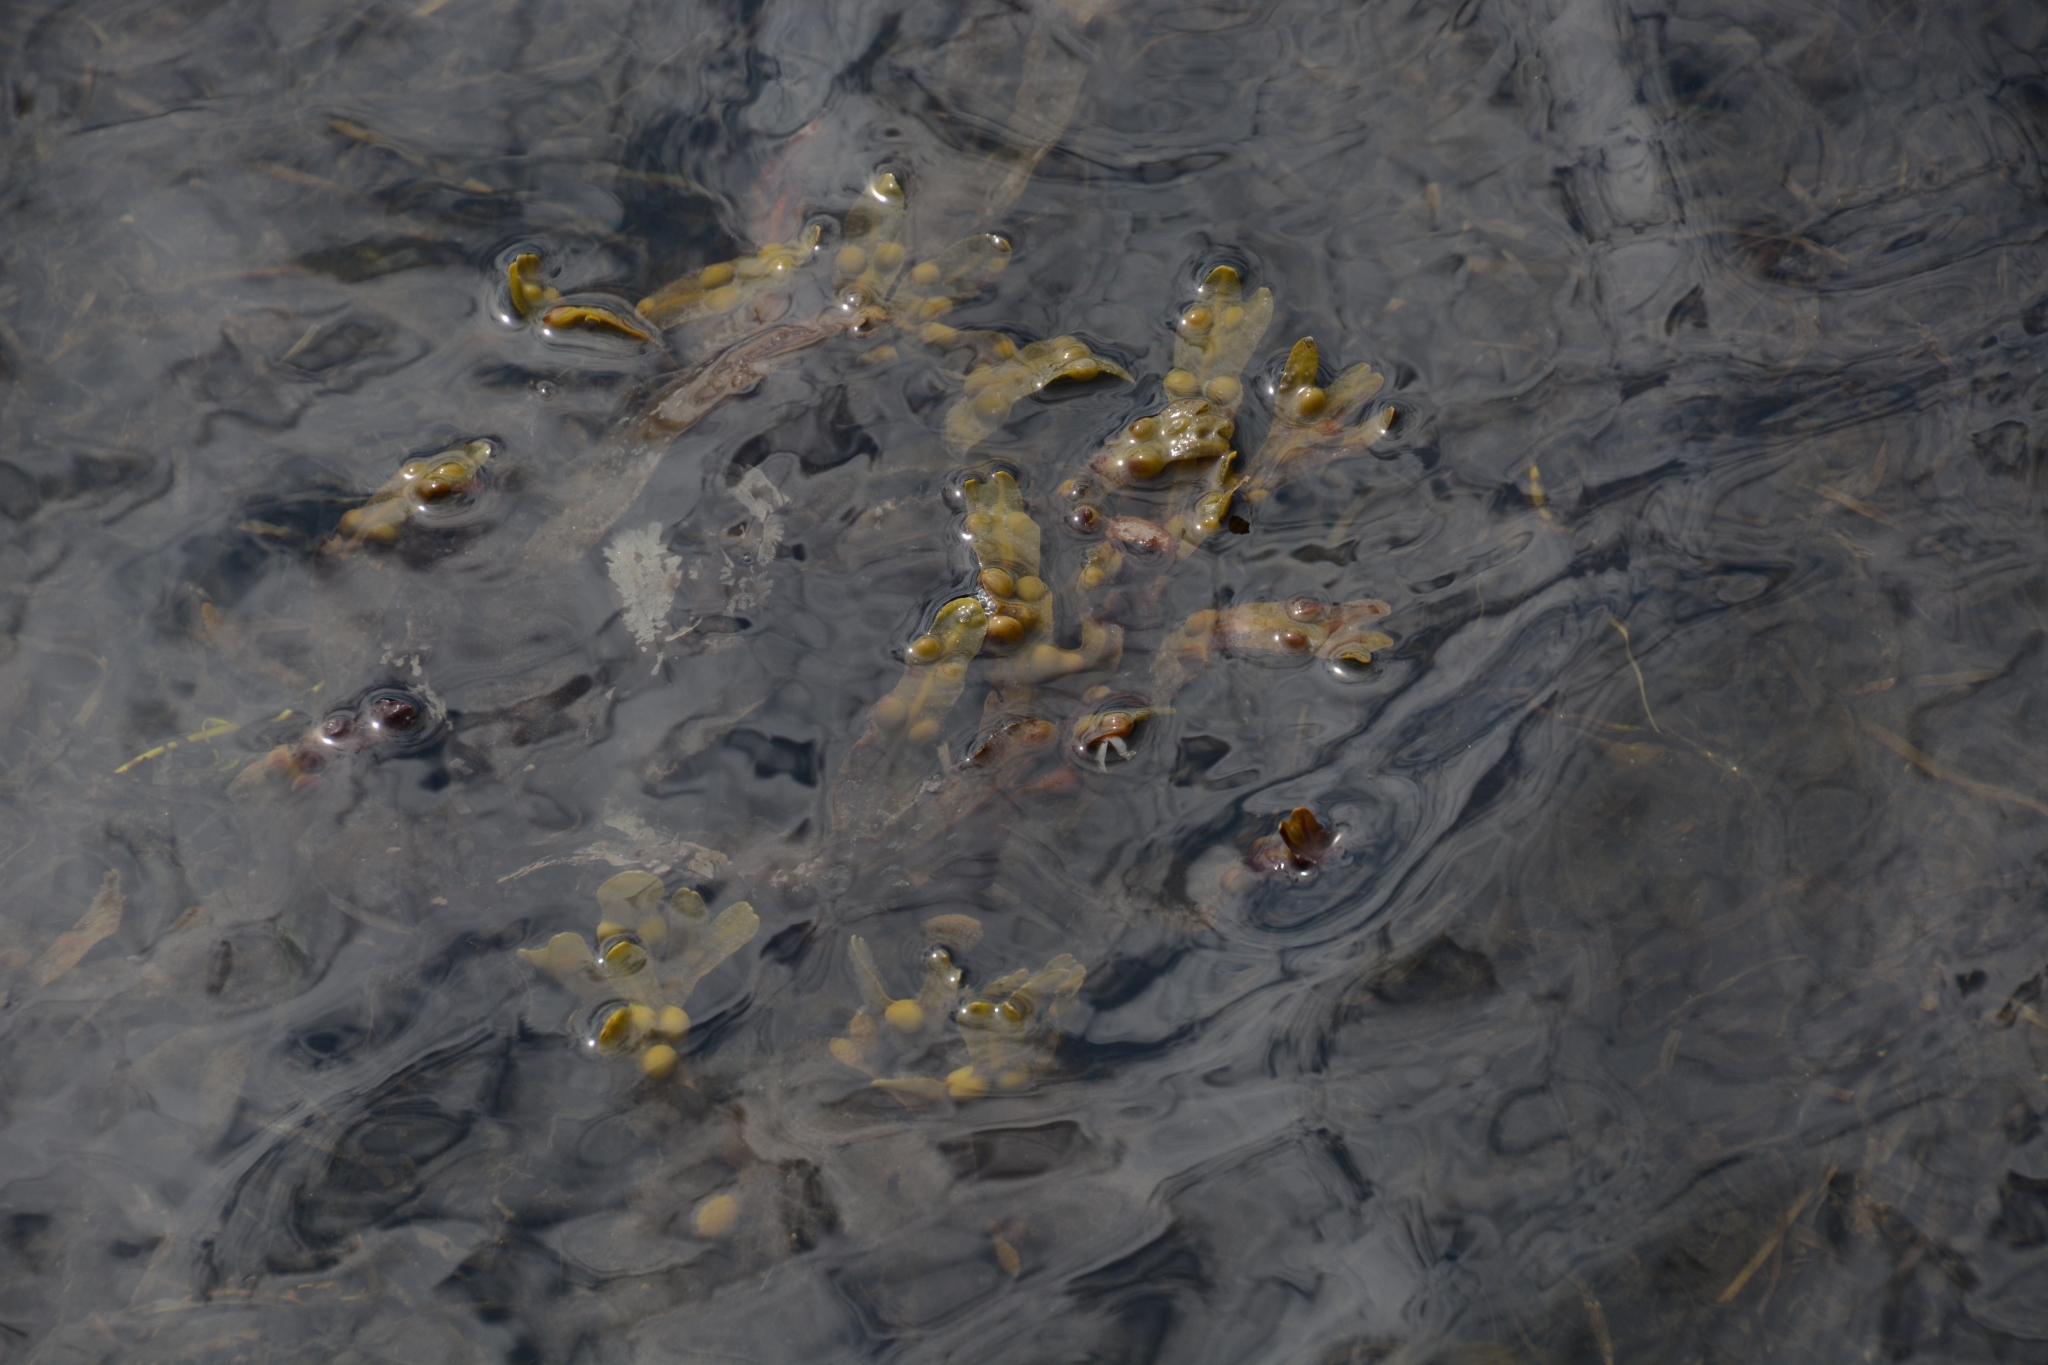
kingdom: Chromista
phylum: Ochrophyta
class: Phaeophyceae
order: Fucales
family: Fucaceae
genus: Fucus
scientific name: Fucus vesiculosus
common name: Bladder wrack
